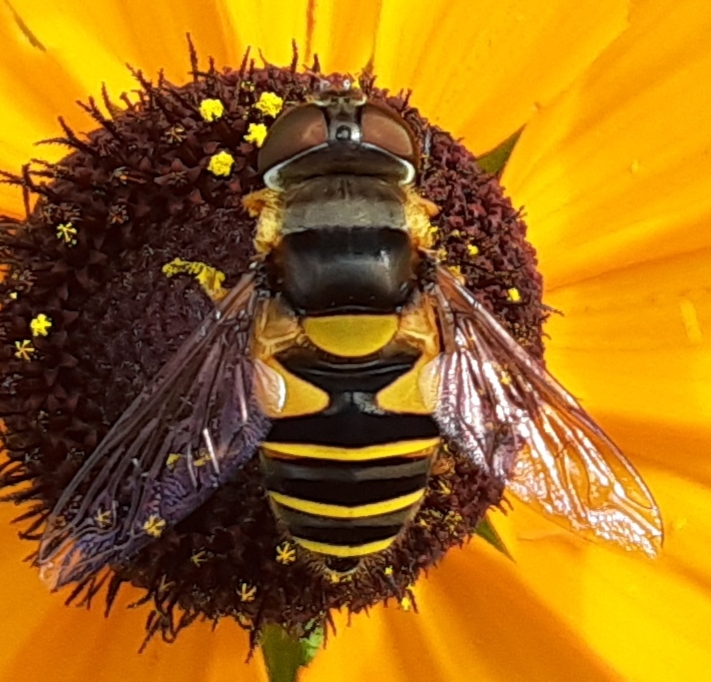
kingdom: Animalia
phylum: Arthropoda
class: Insecta
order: Diptera
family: Syrphidae
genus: Eristalis
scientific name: Eristalis transversa
